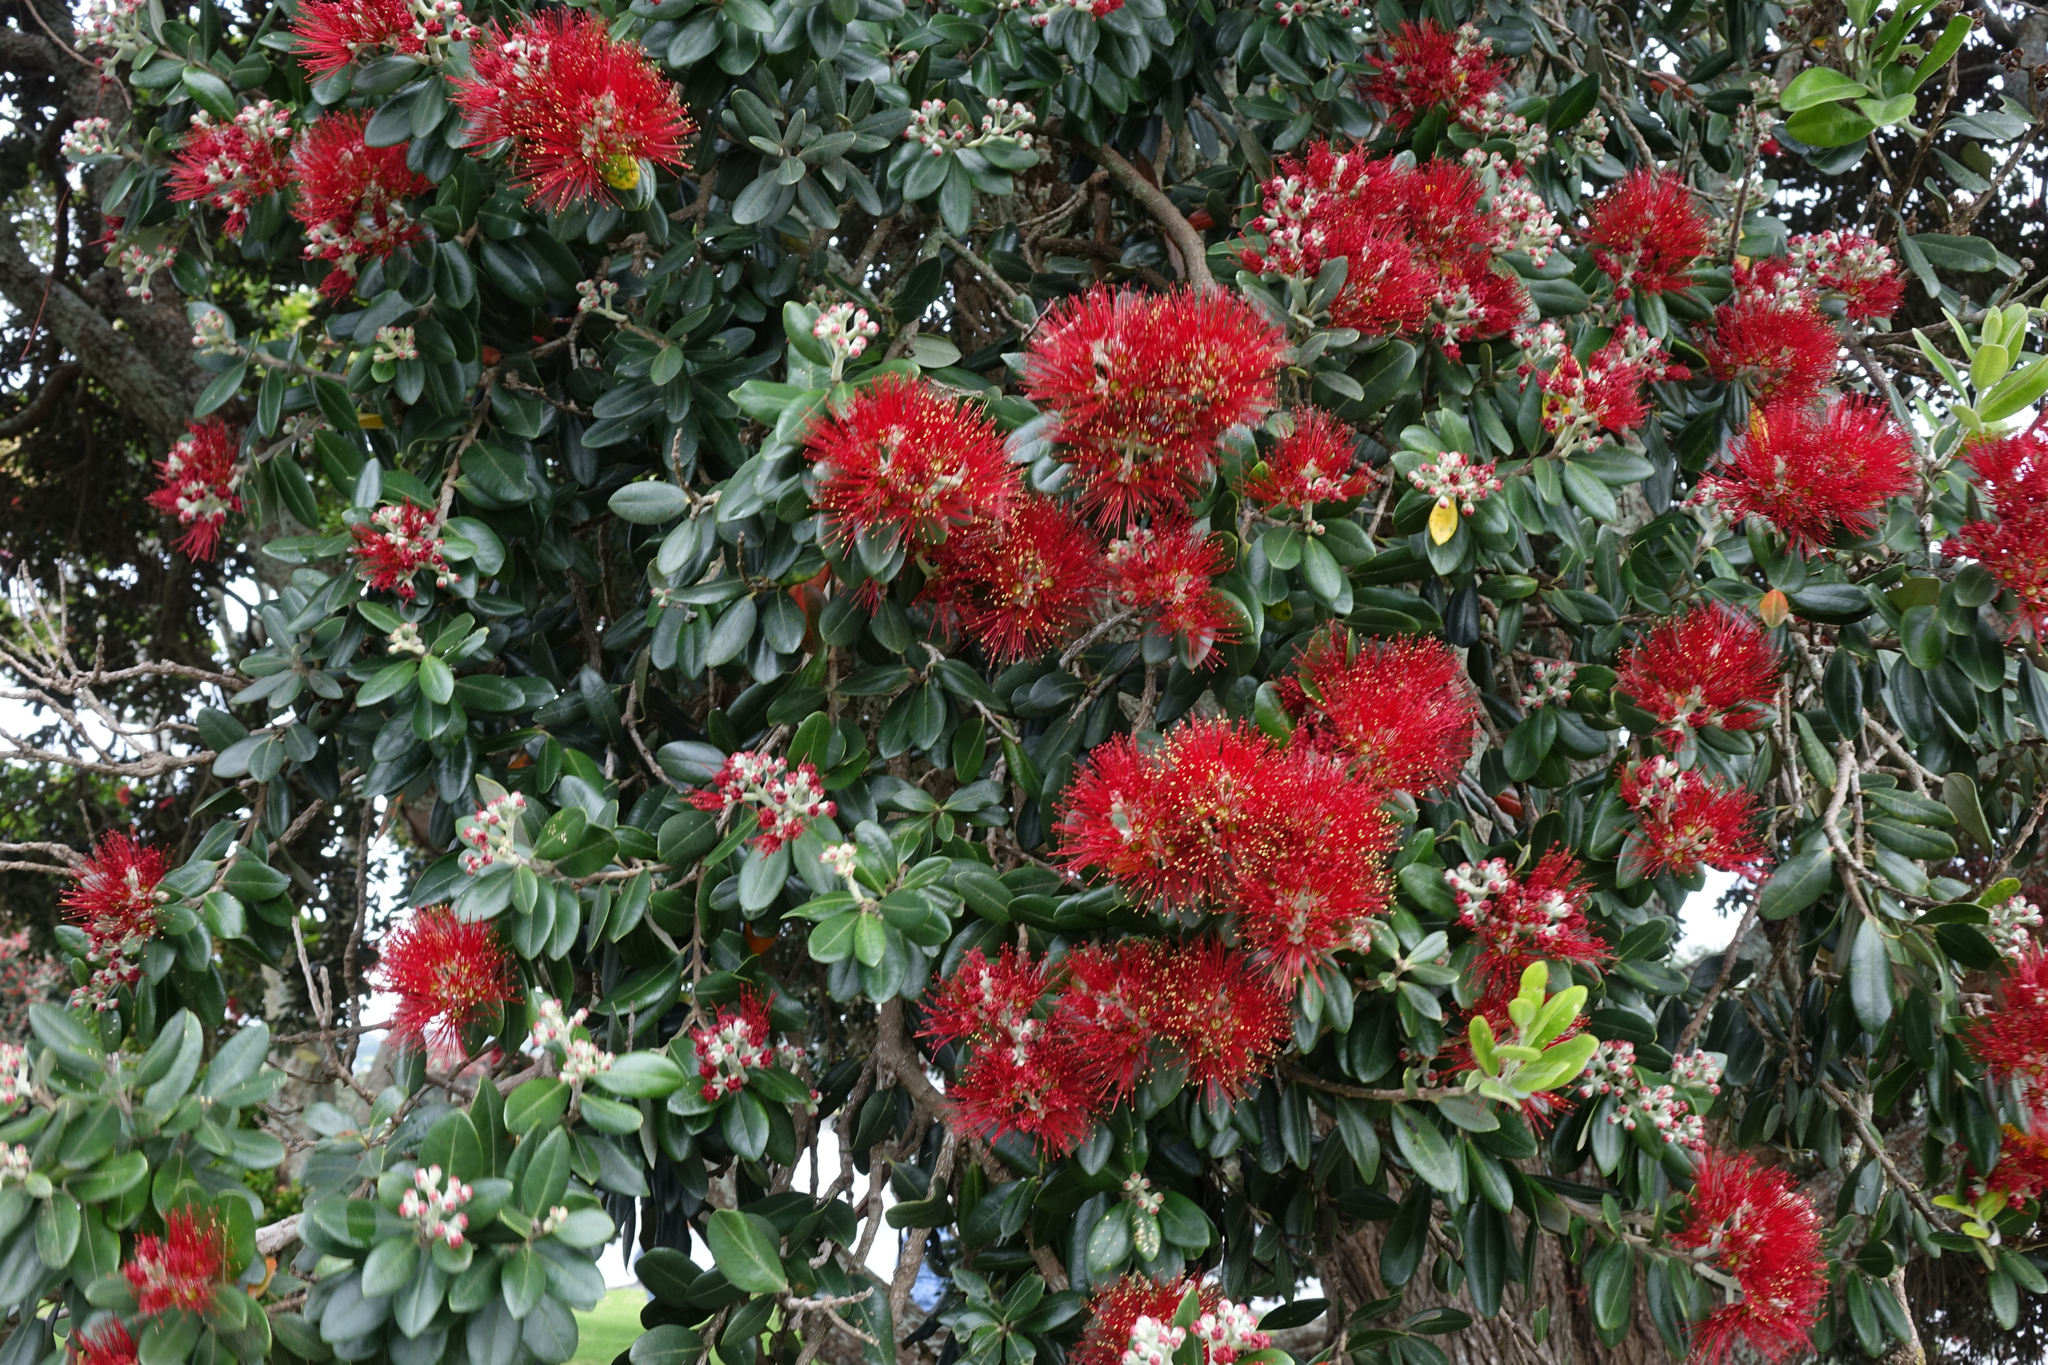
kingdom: Plantae
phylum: Tracheophyta
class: Magnoliopsida
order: Myrtales
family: Myrtaceae
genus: Metrosideros
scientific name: Metrosideros excelsa
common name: New zealand christmastree
